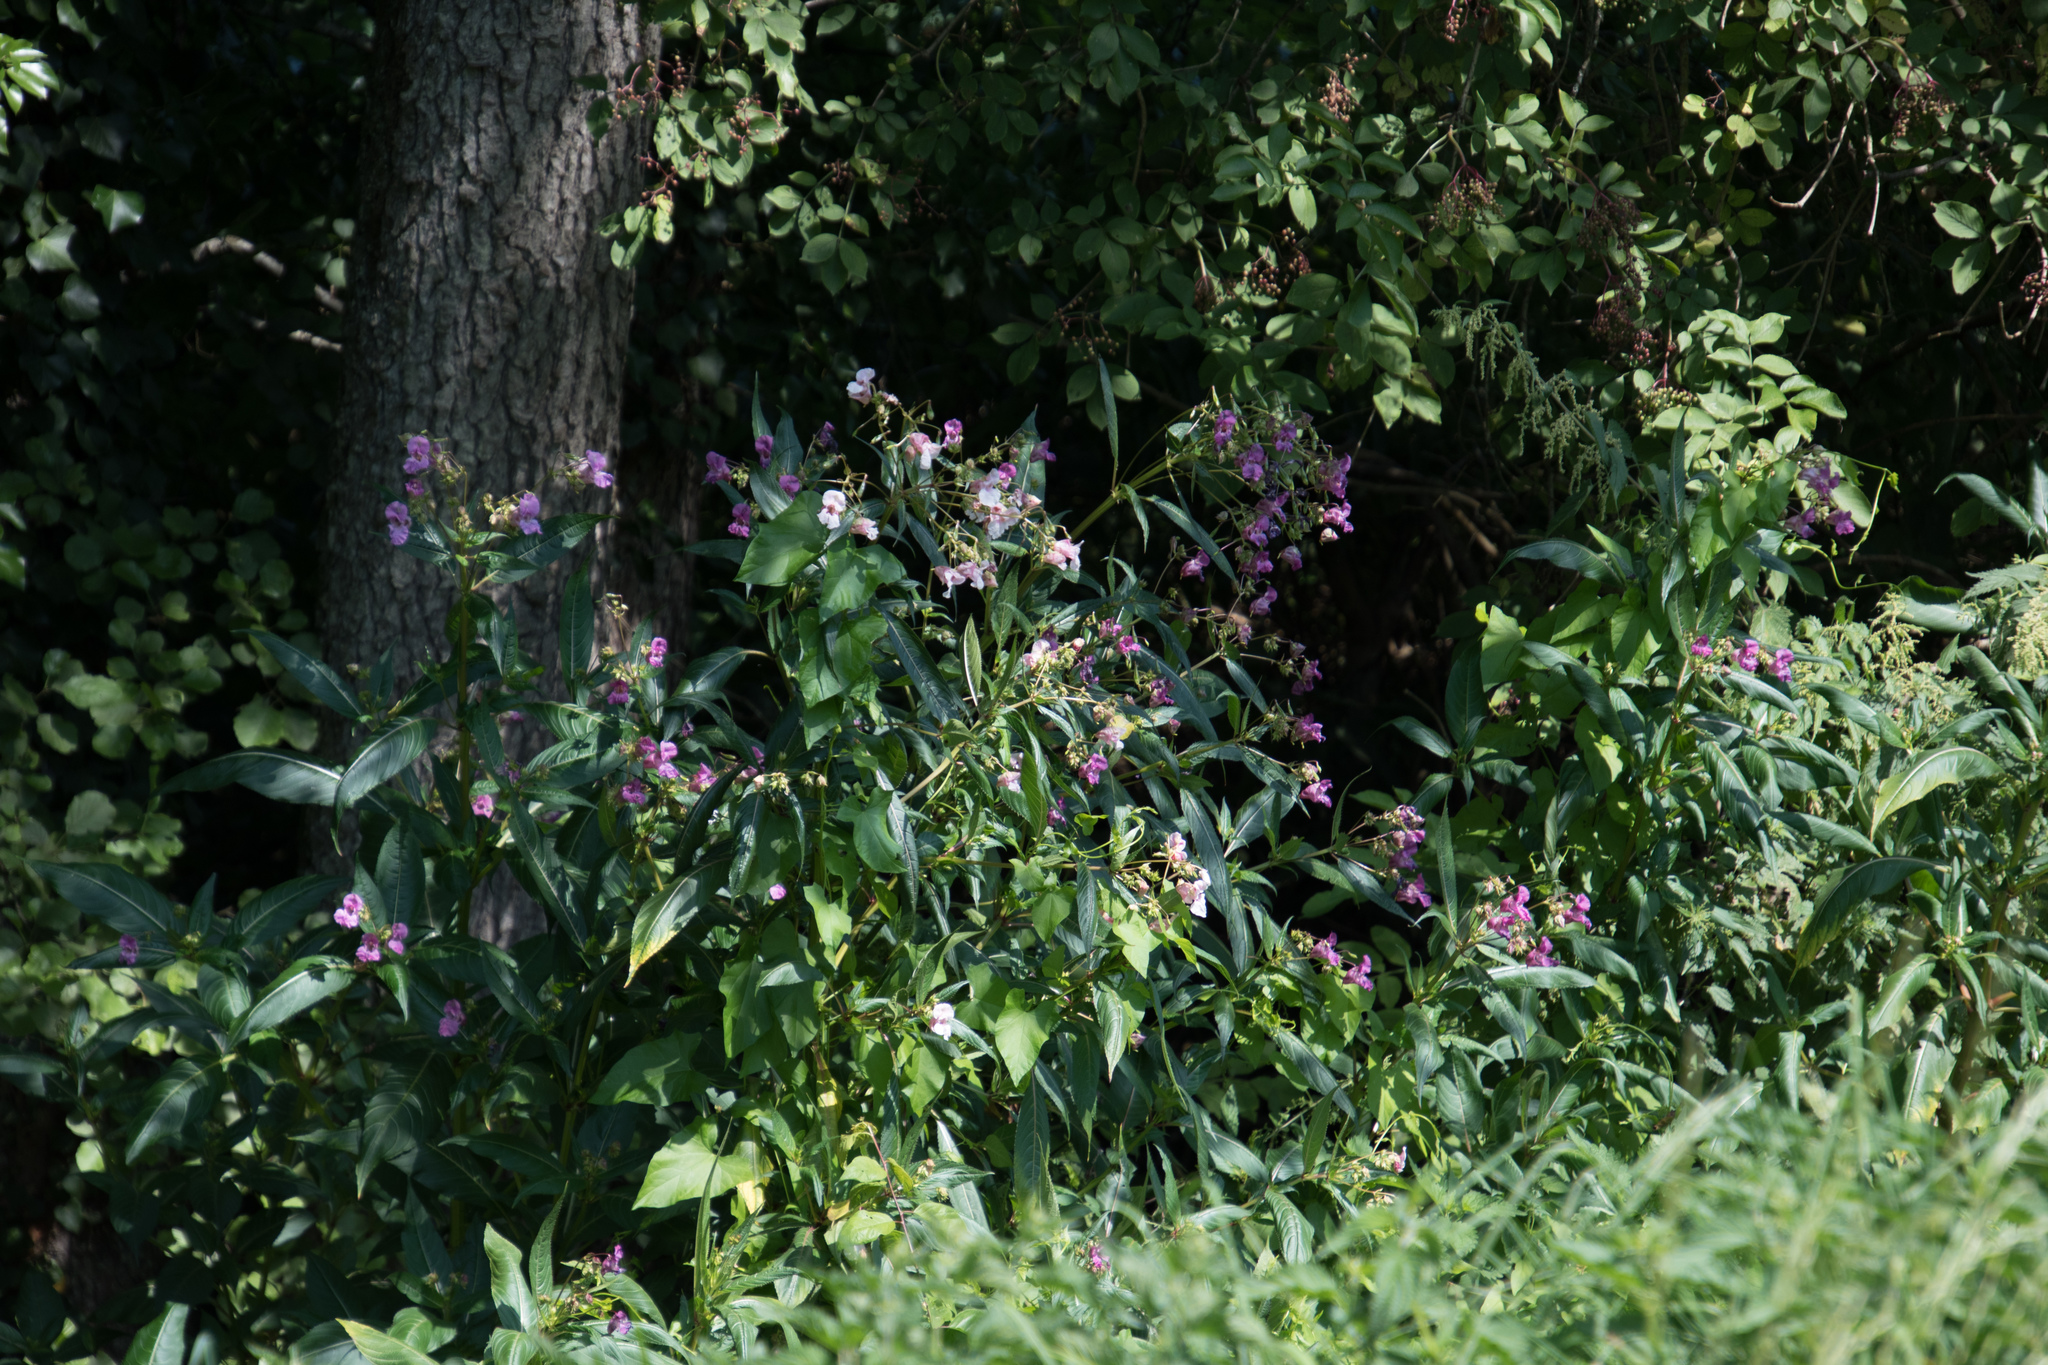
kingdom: Plantae
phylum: Tracheophyta
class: Magnoliopsida
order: Ericales
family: Balsaminaceae
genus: Impatiens
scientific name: Impatiens glandulifera
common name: Himalayan balsam
